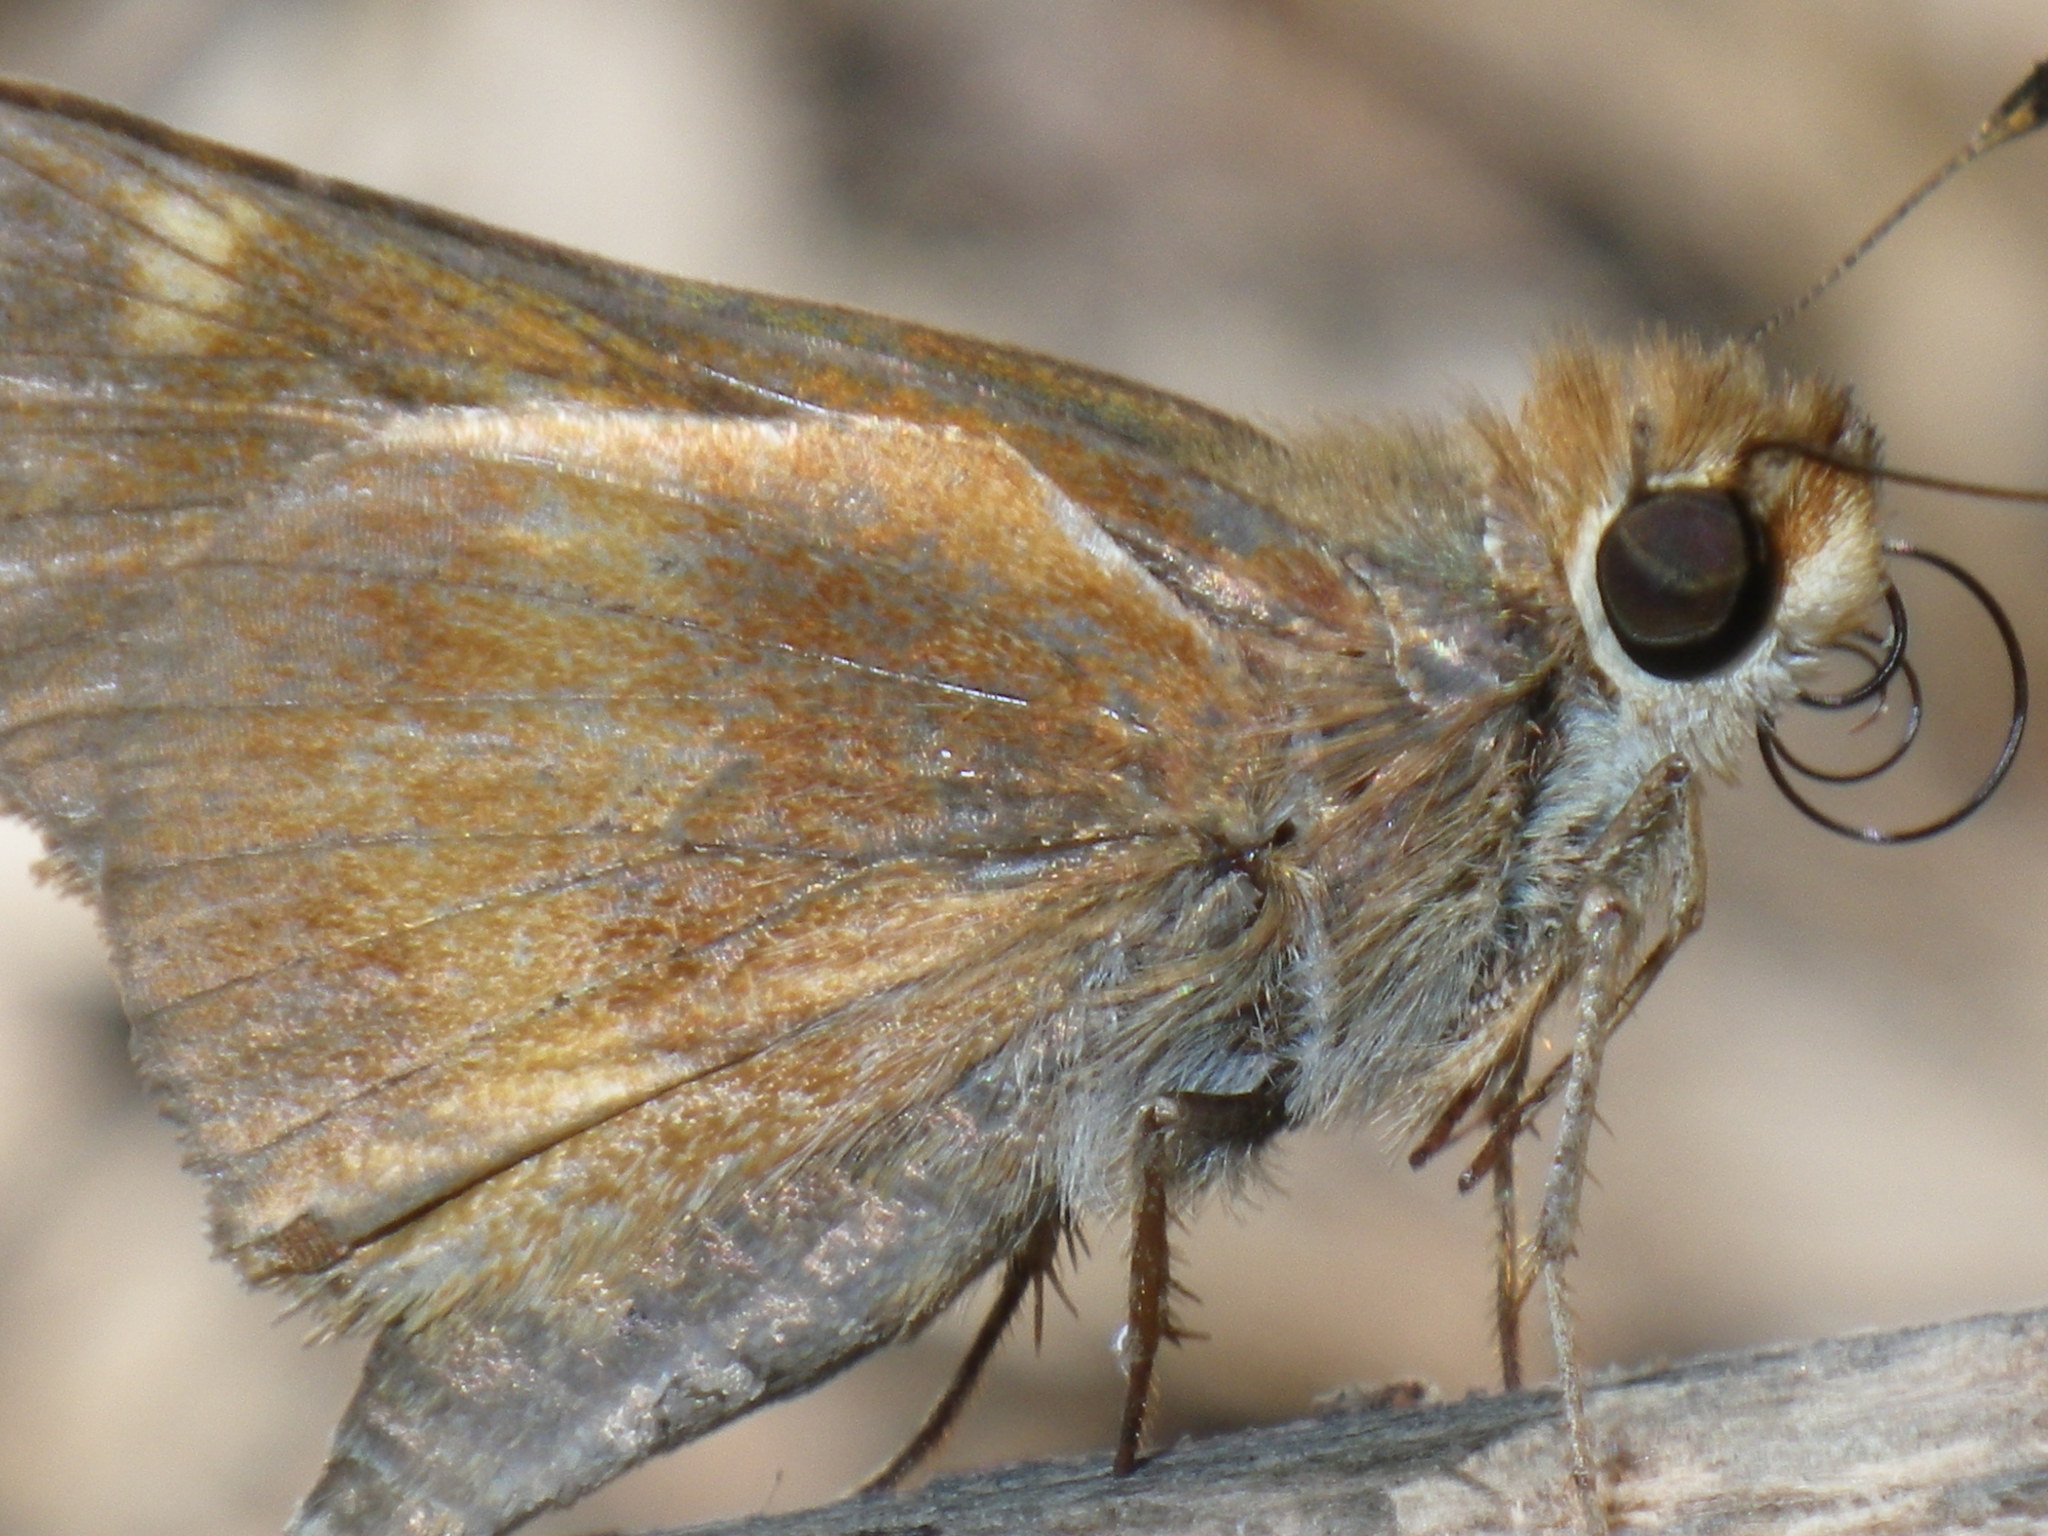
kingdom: Animalia
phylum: Arthropoda
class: Insecta
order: Lepidoptera
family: Hesperiidae
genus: Lon
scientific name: Lon melane
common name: Umber skipper
